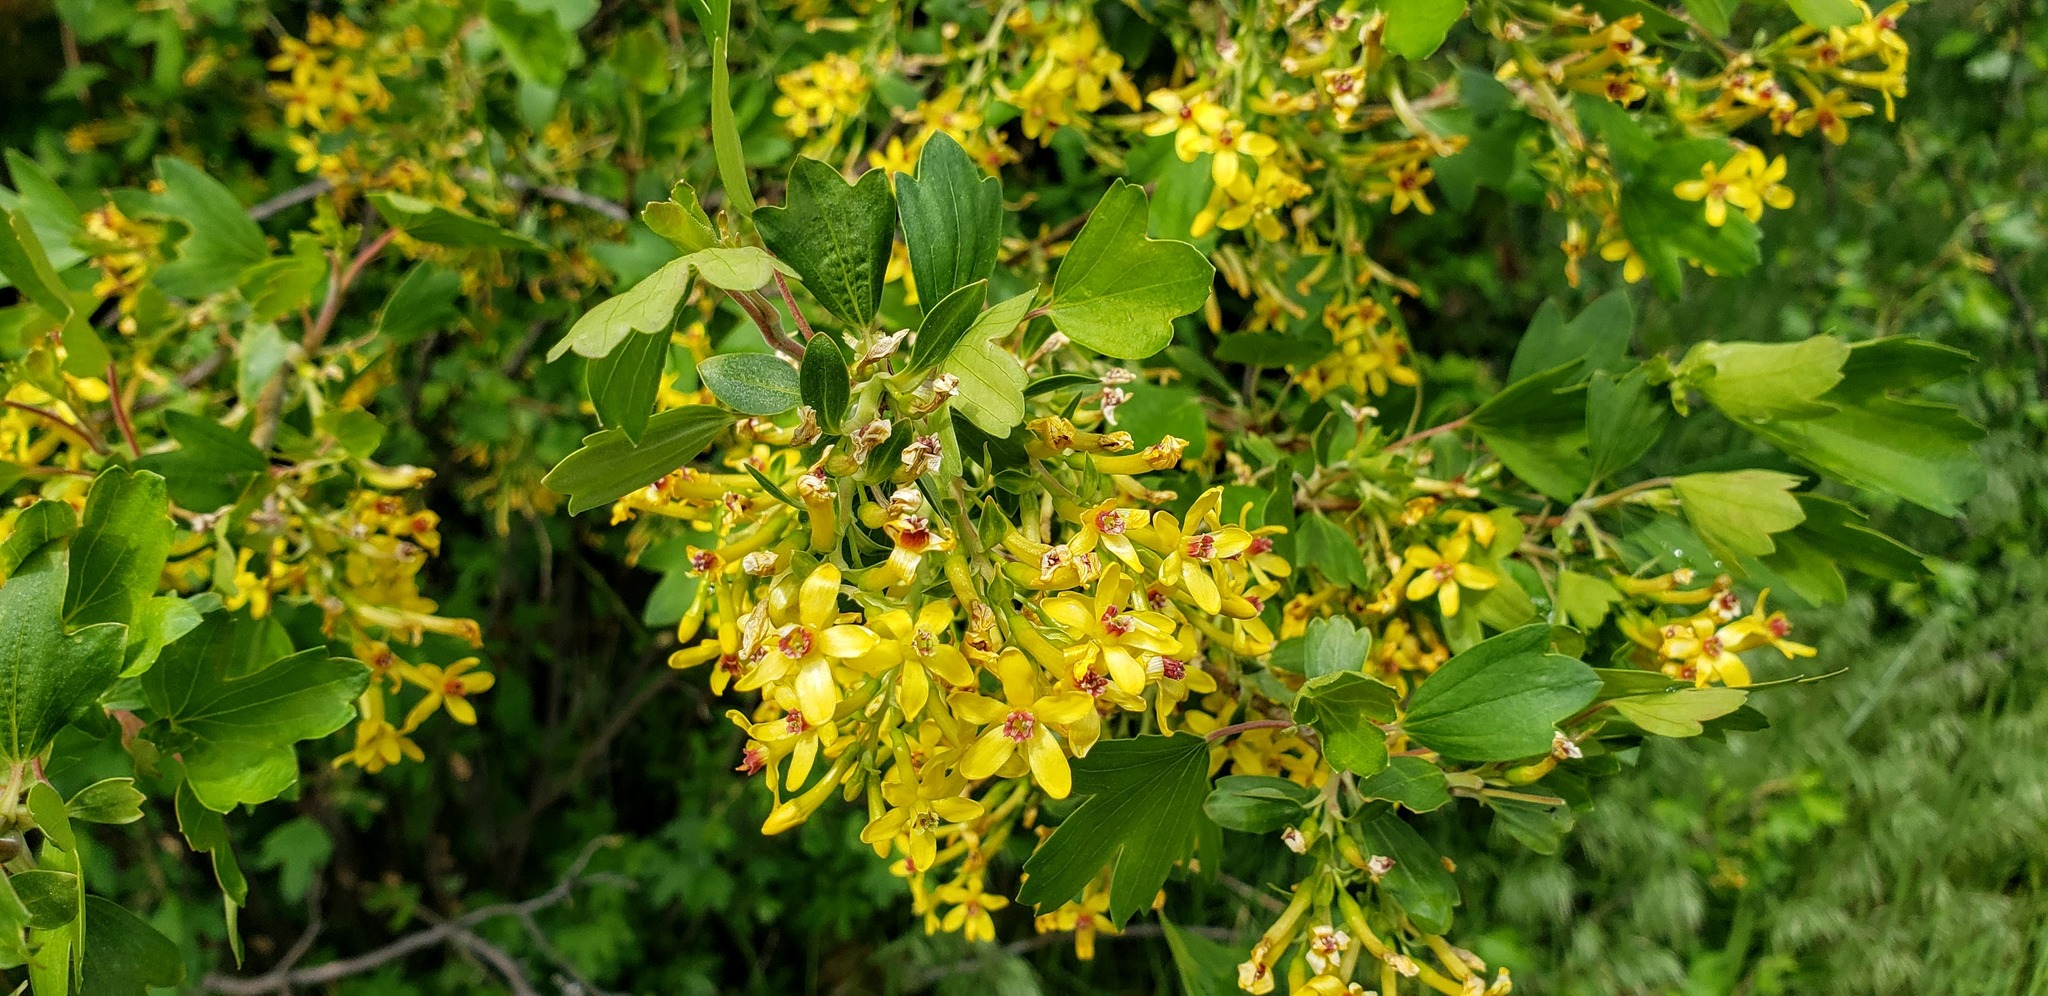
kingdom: Plantae
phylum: Tracheophyta
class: Magnoliopsida
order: Saxifragales
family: Grossulariaceae
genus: Ribes
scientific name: Ribes aureum
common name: Golden currant
